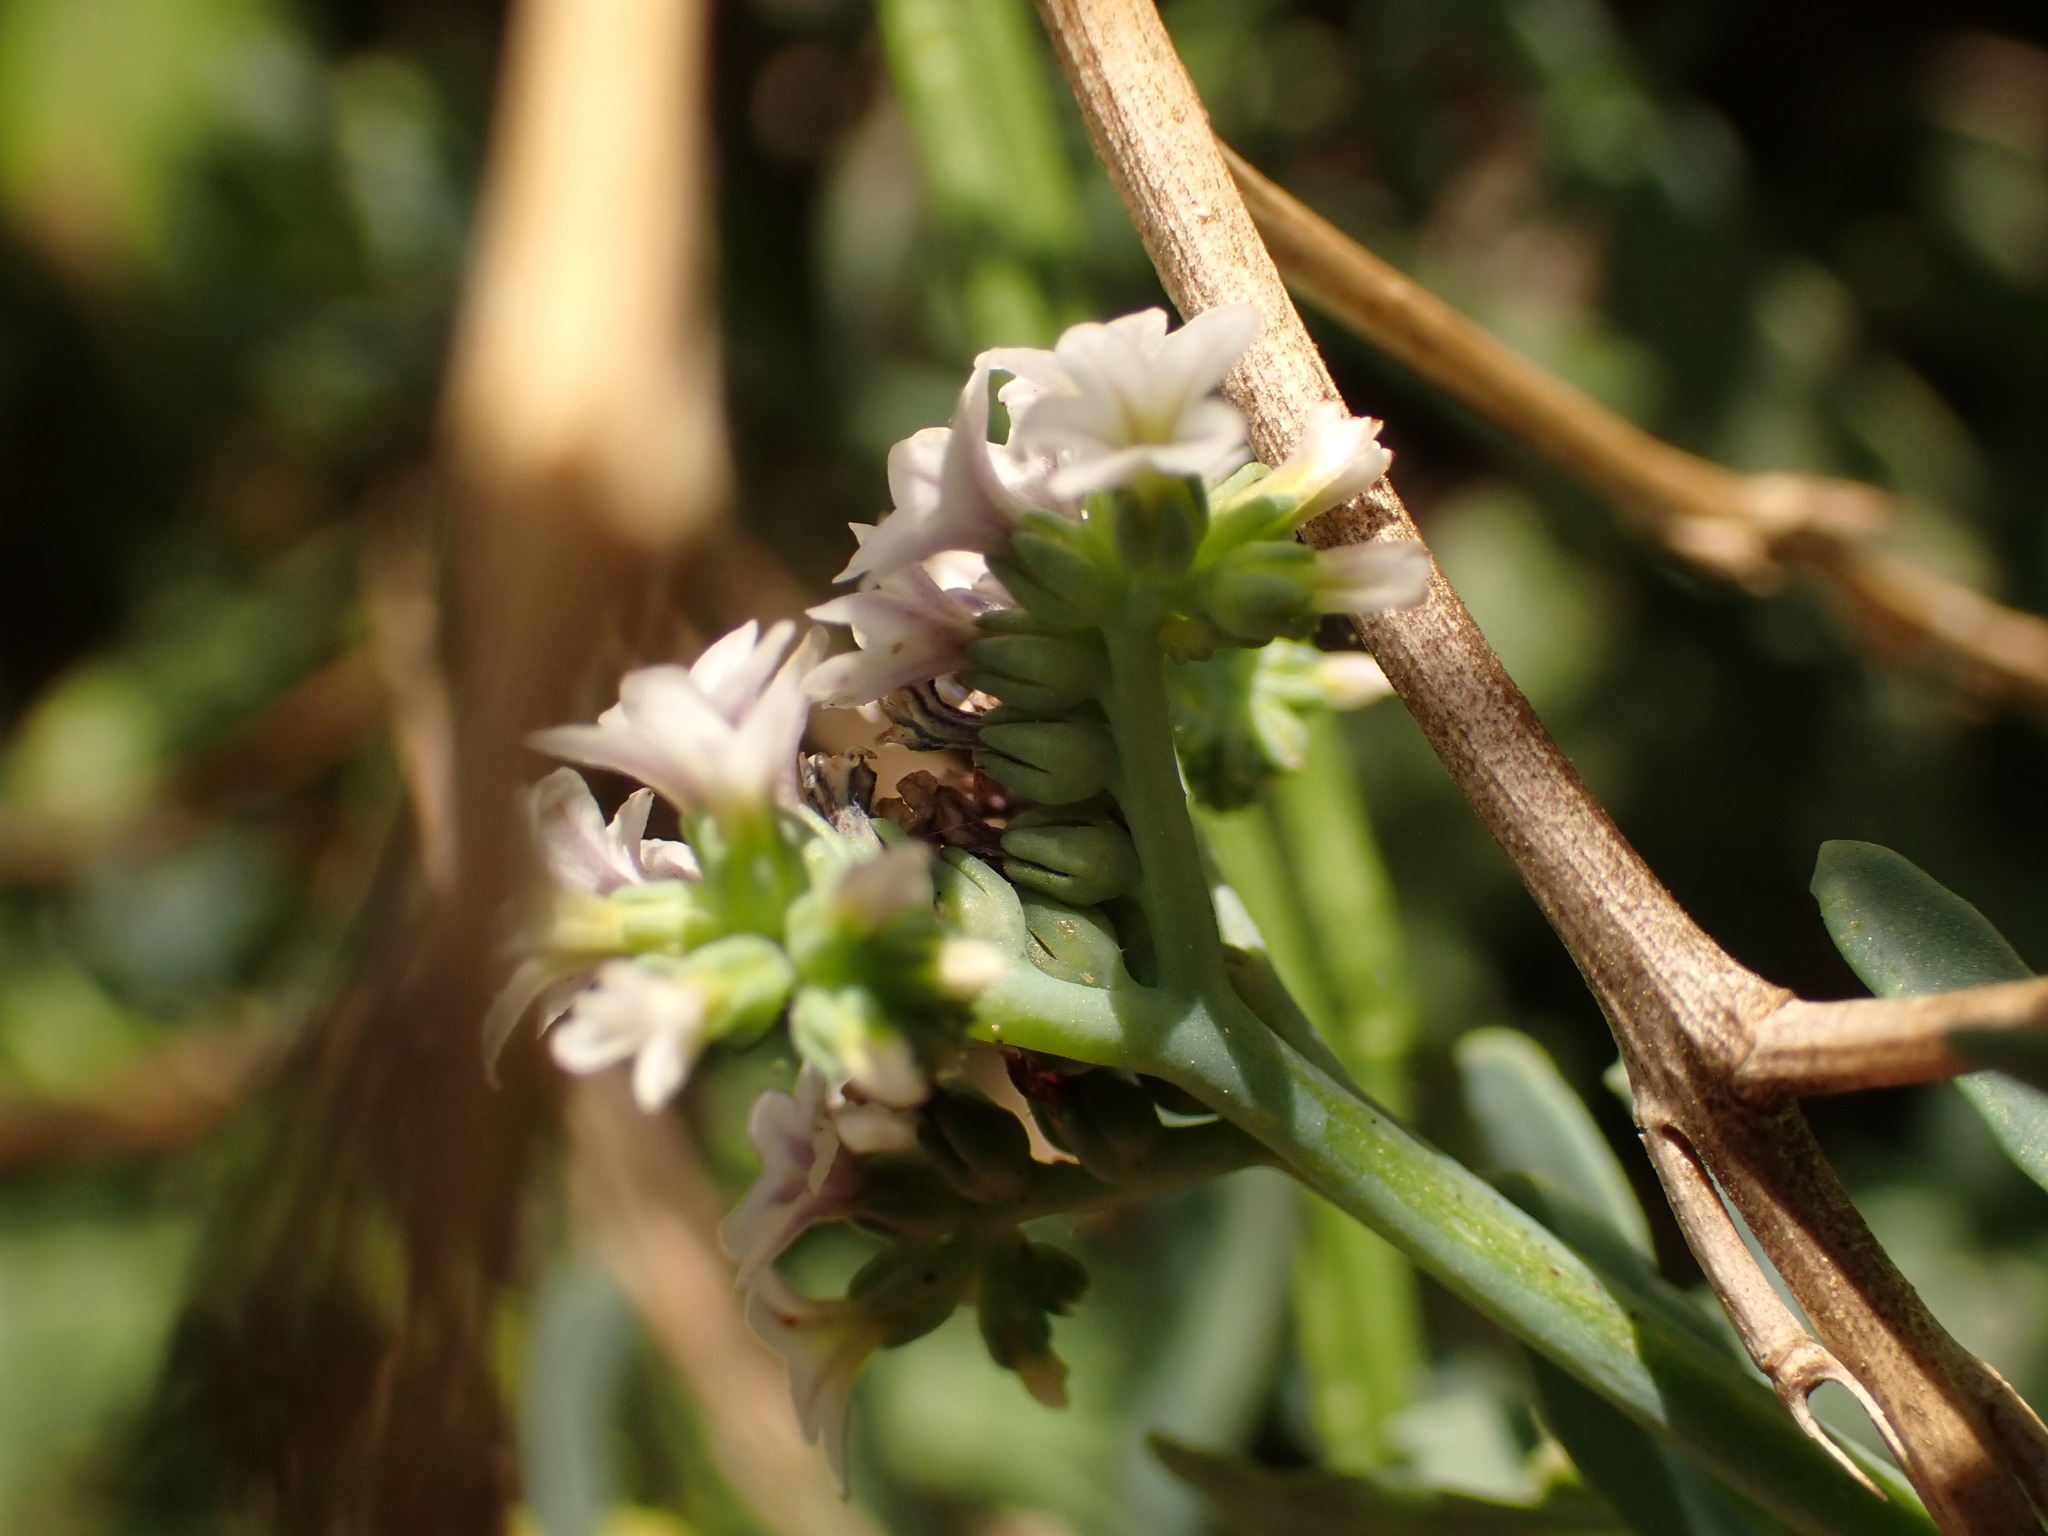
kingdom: Plantae
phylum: Tracheophyta
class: Magnoliopsida
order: Boraginales
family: Heliotropiaceae
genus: Heliotropium
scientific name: Heliotropium curassavicum
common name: Seaside heliotrope
